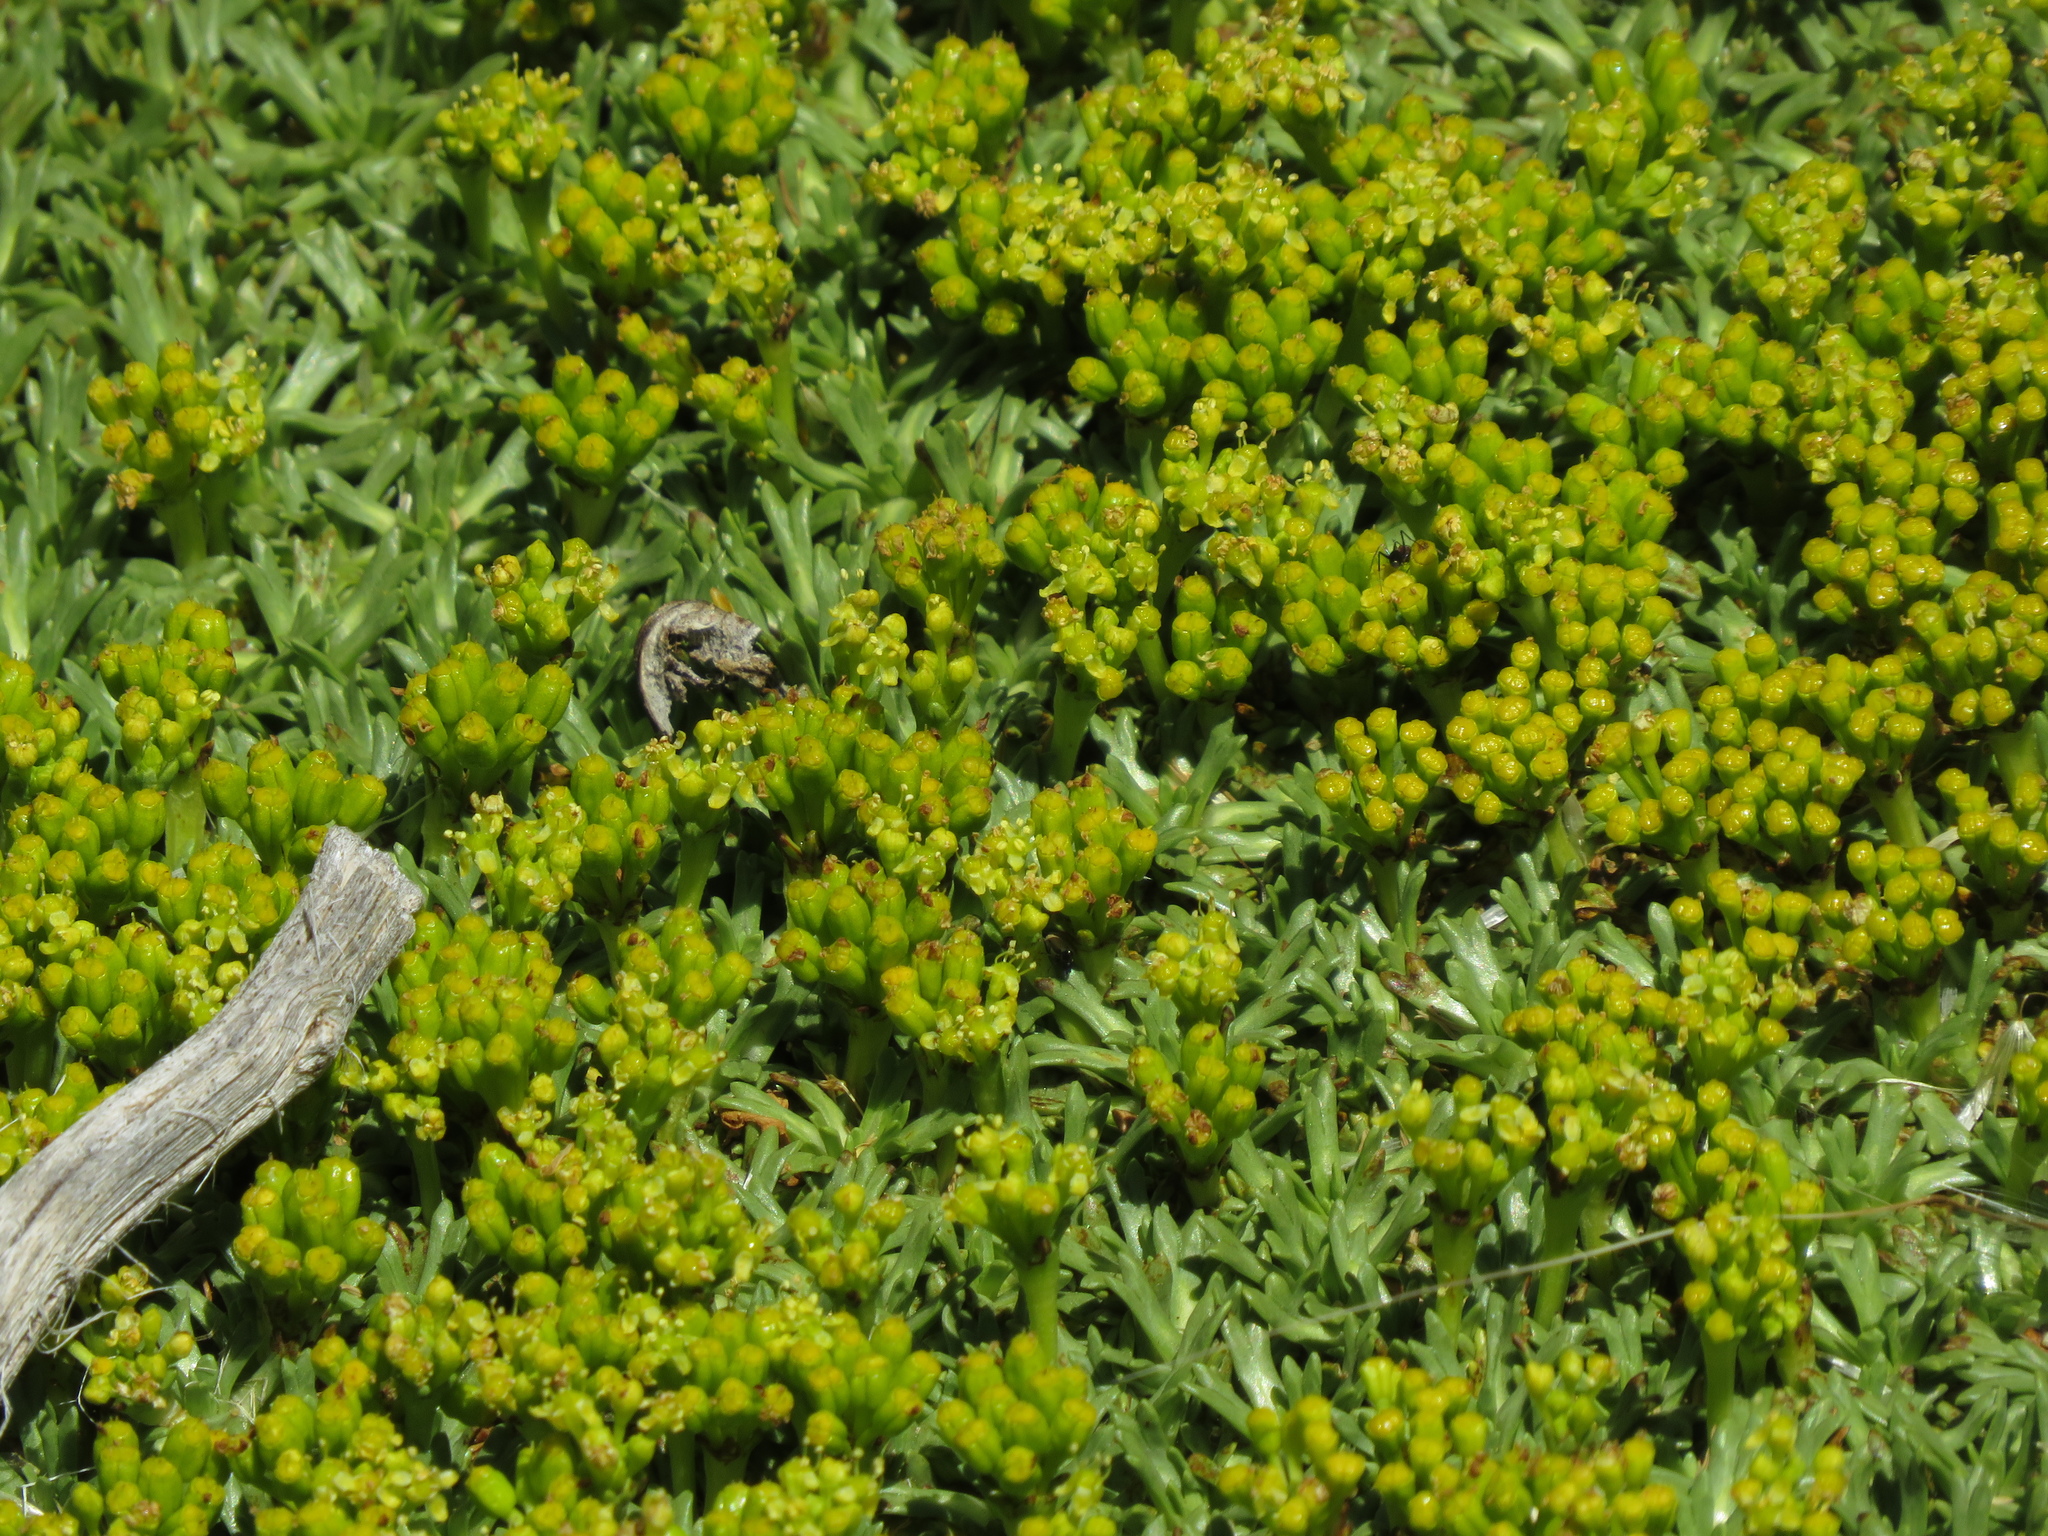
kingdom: Plantae
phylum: Tracheophyta
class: Magnoliopsida
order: Apiales
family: Apiaceae
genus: Azorella
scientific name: Azorella trifurcata
